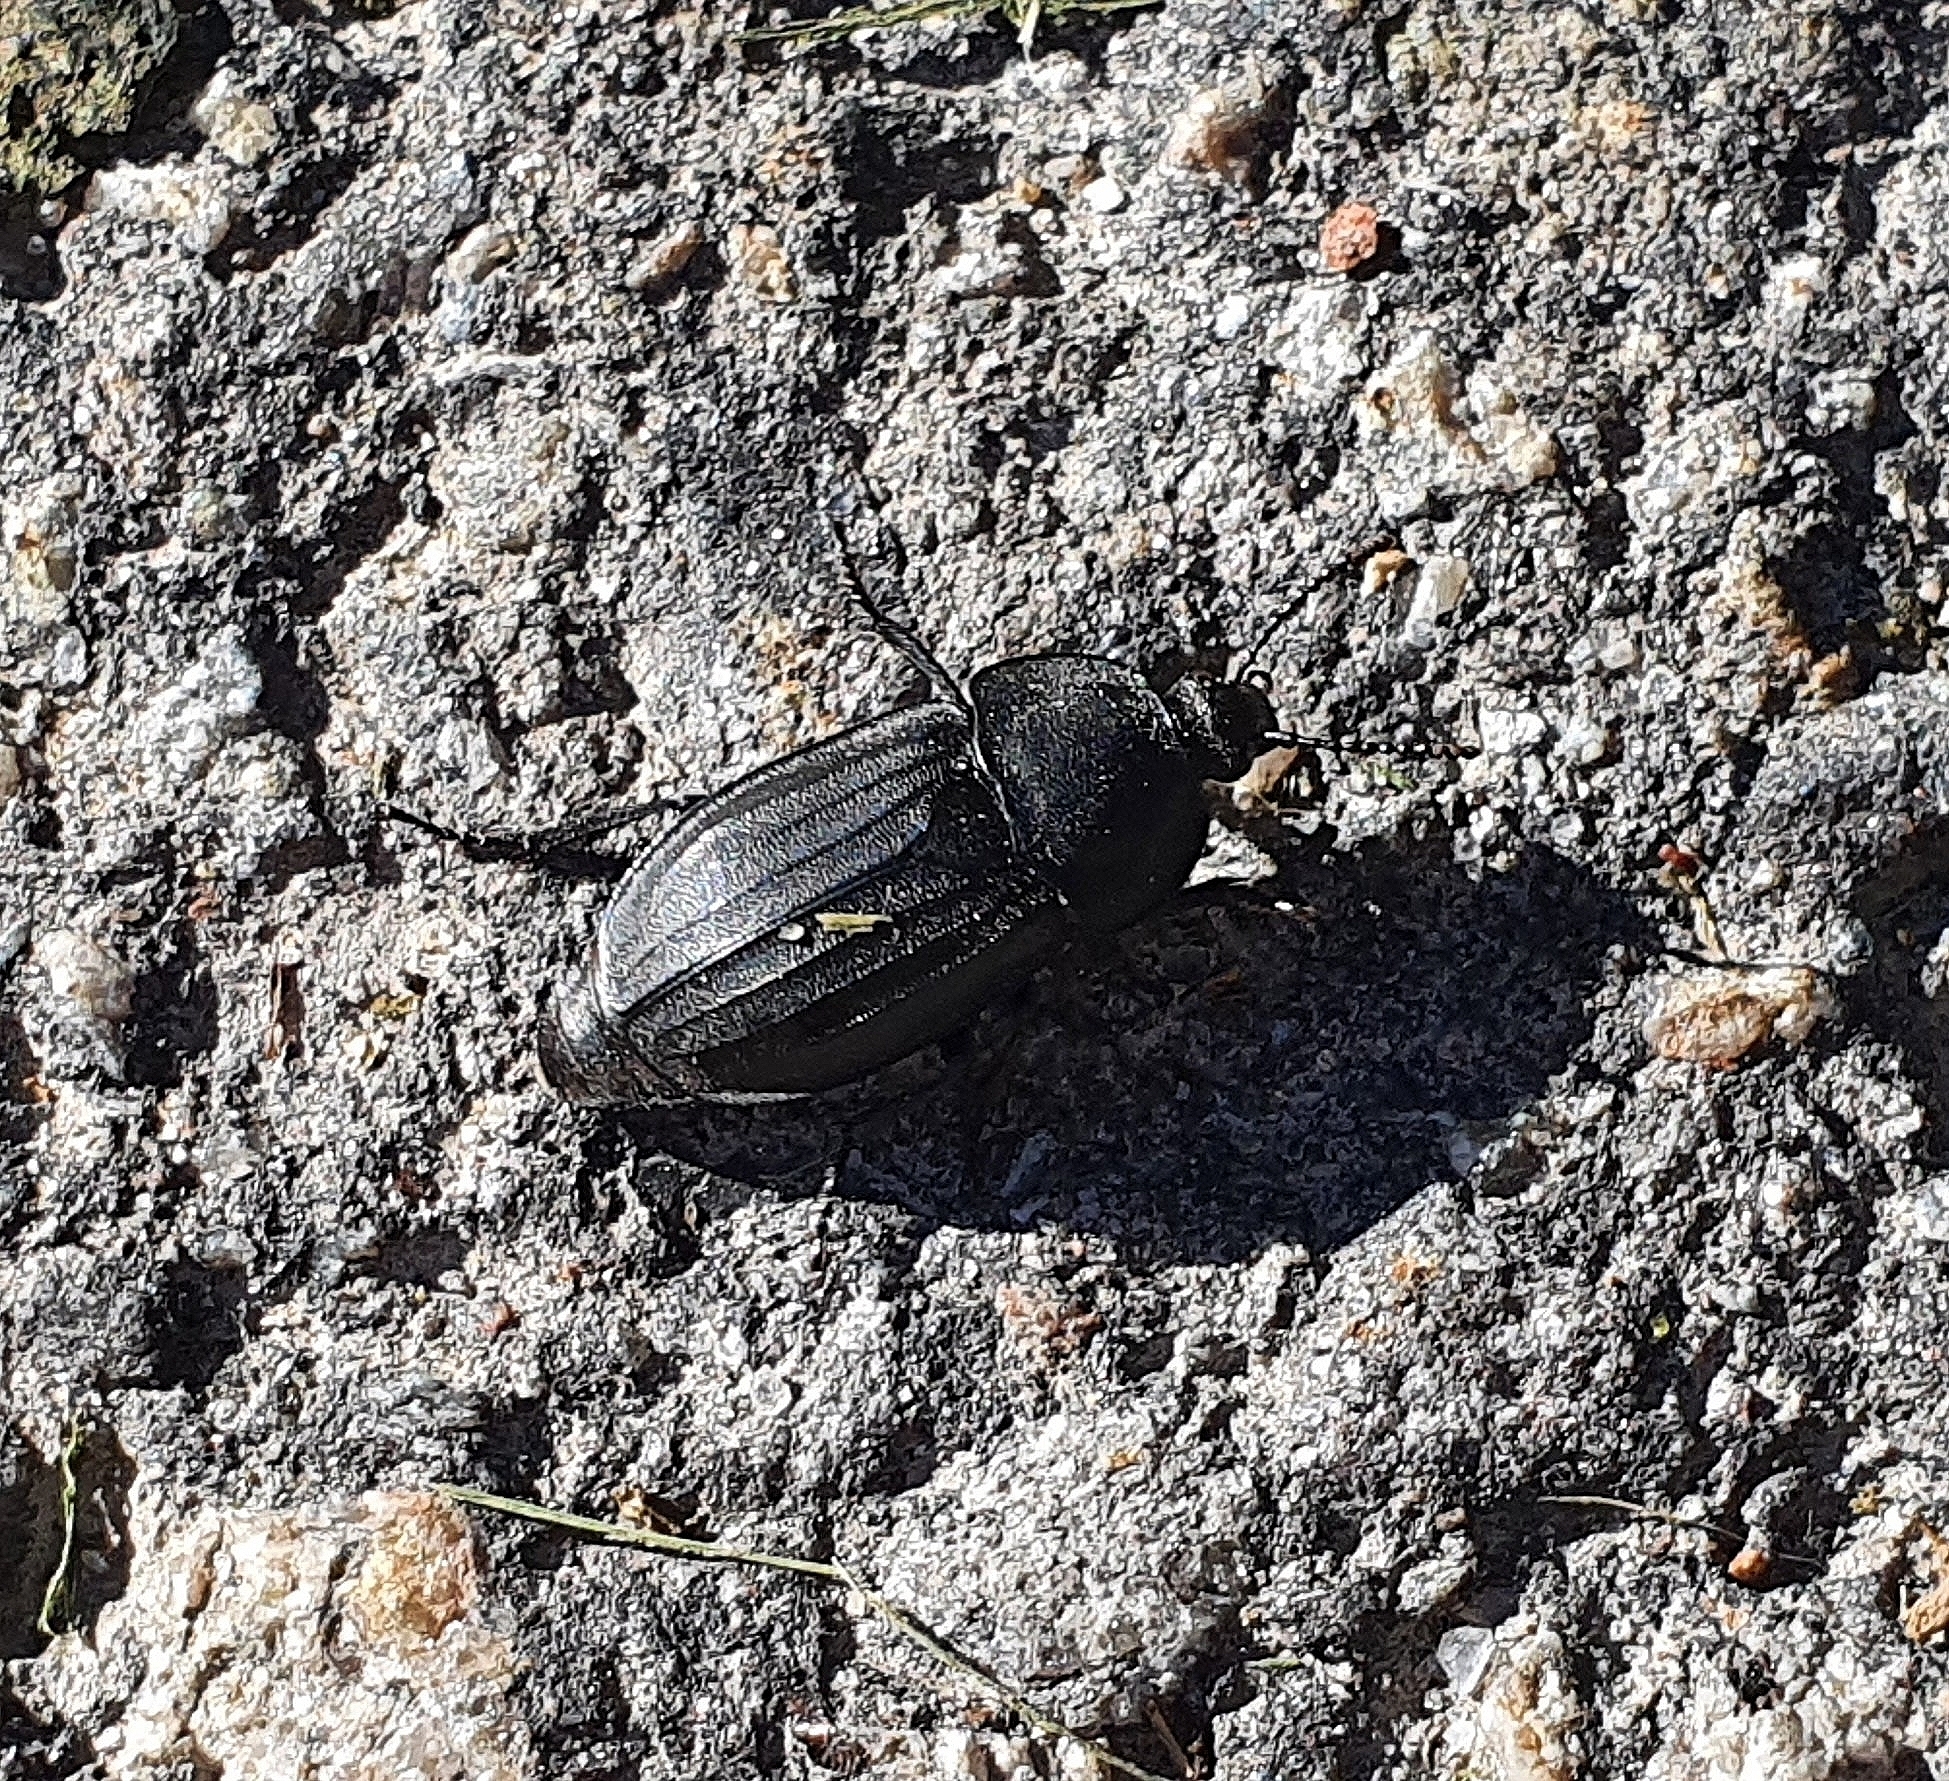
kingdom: Animalia
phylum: Arthropoda
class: Insecta
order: Coleoptera
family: Staphylinidae
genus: Silpha
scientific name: Silpha tristis
